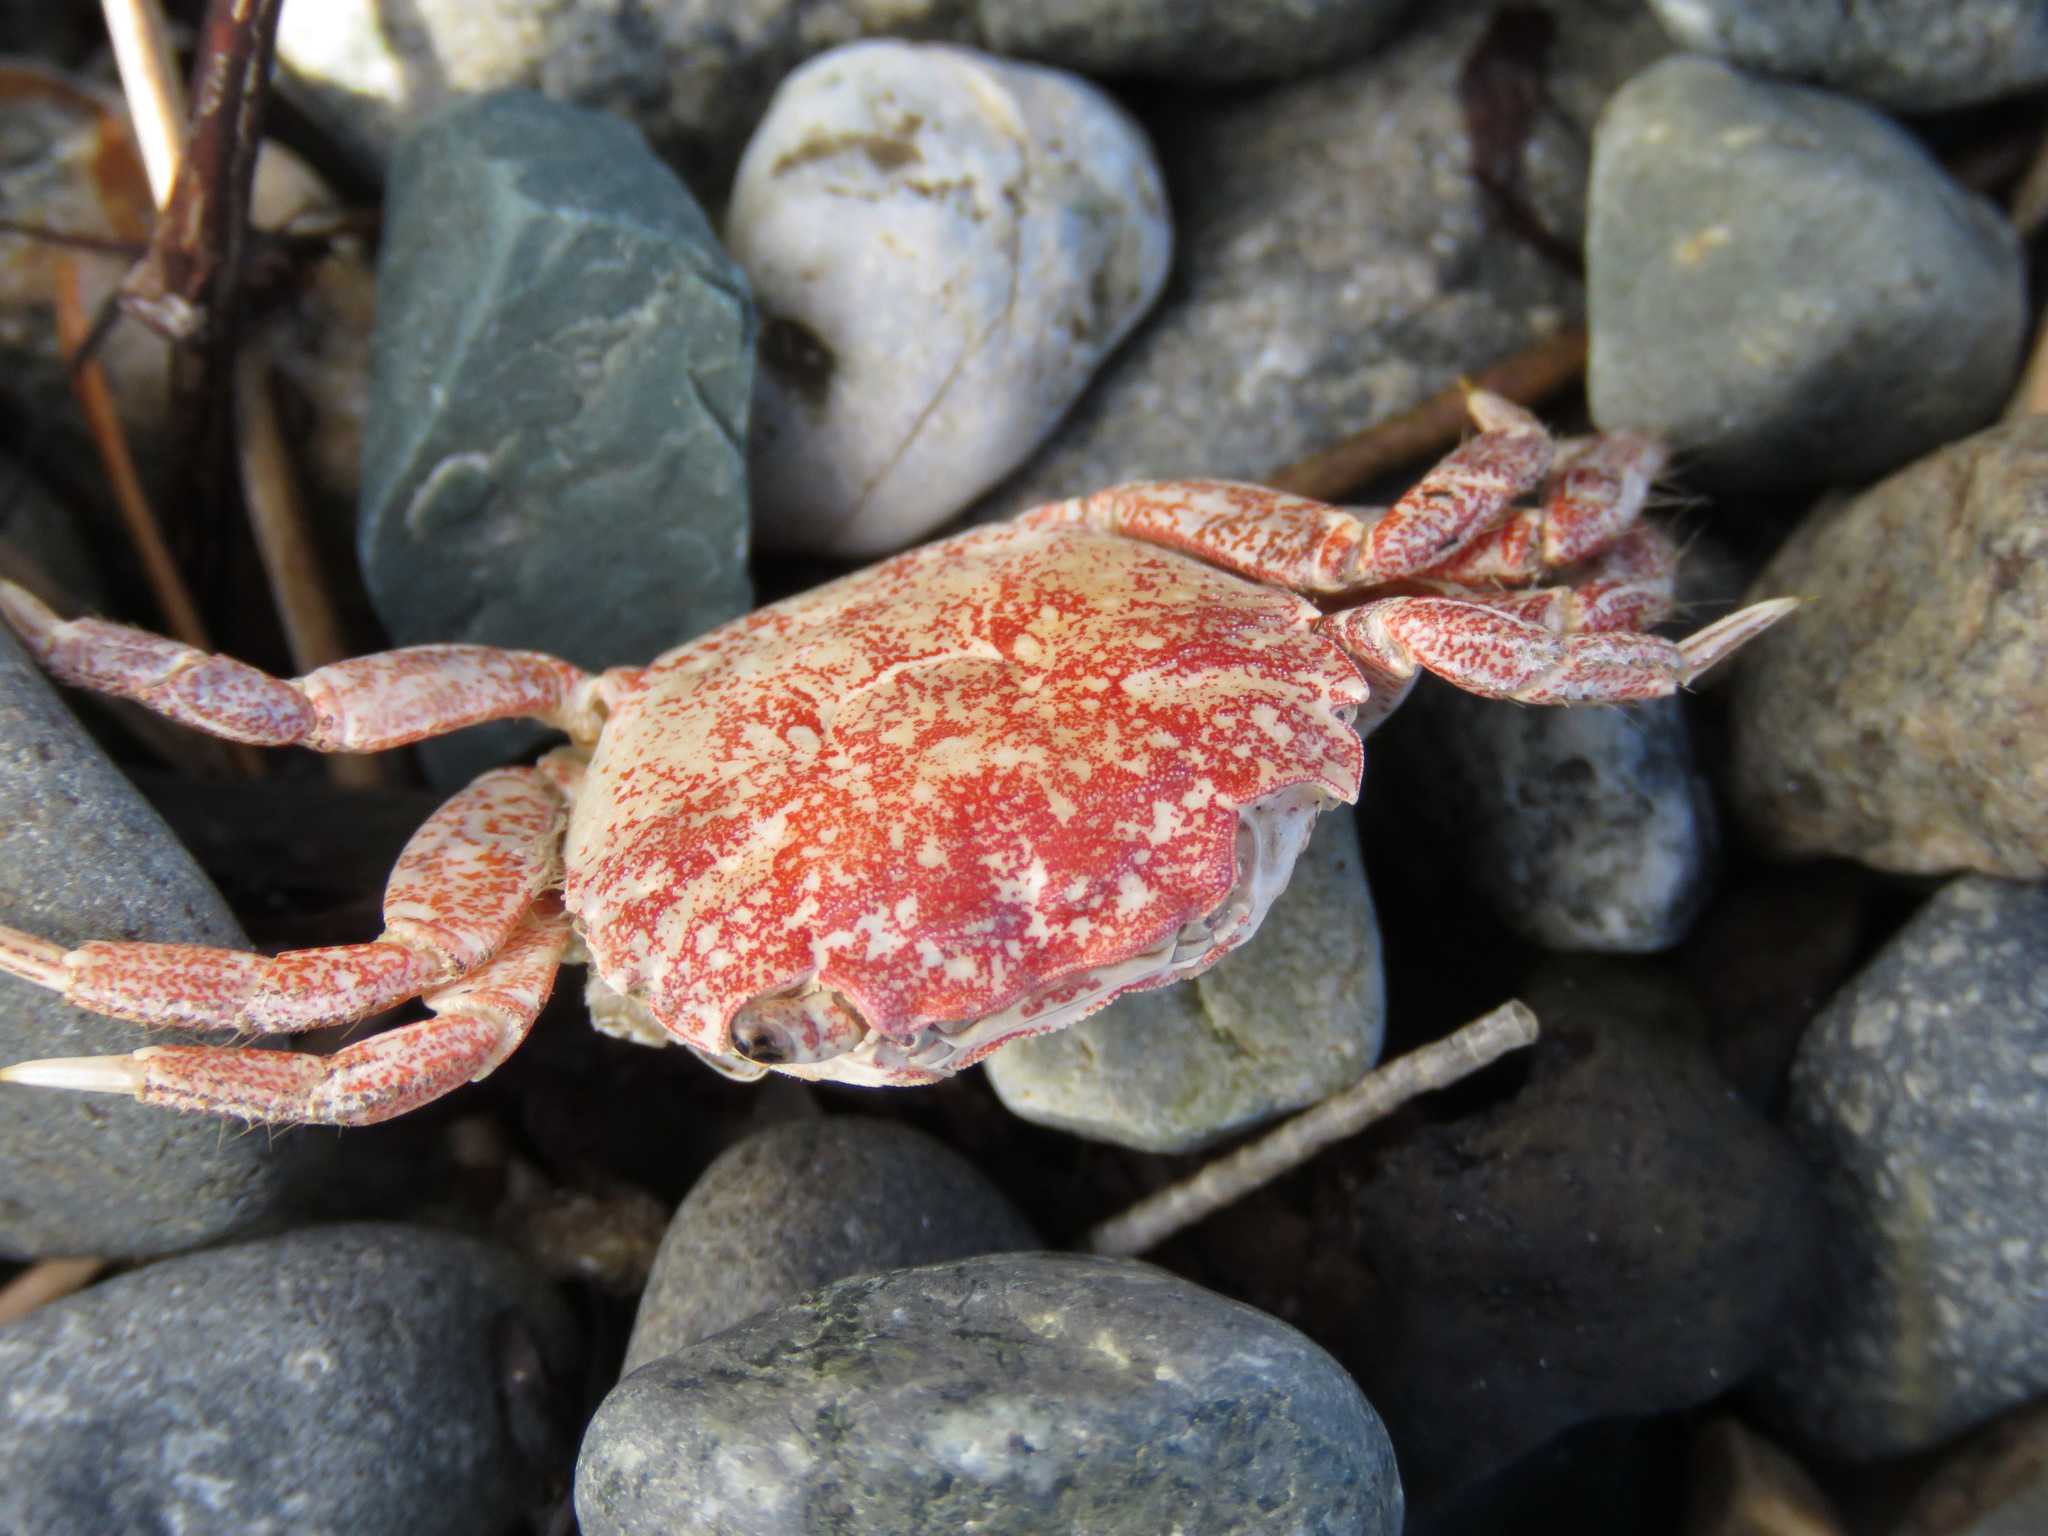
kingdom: Animalia
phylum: Arthropoda
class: Malacostraca
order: Decapoda
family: Varunidae
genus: Hemigrapsus
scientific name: Hemigrapsus oregonensis
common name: Yellow shore crab
